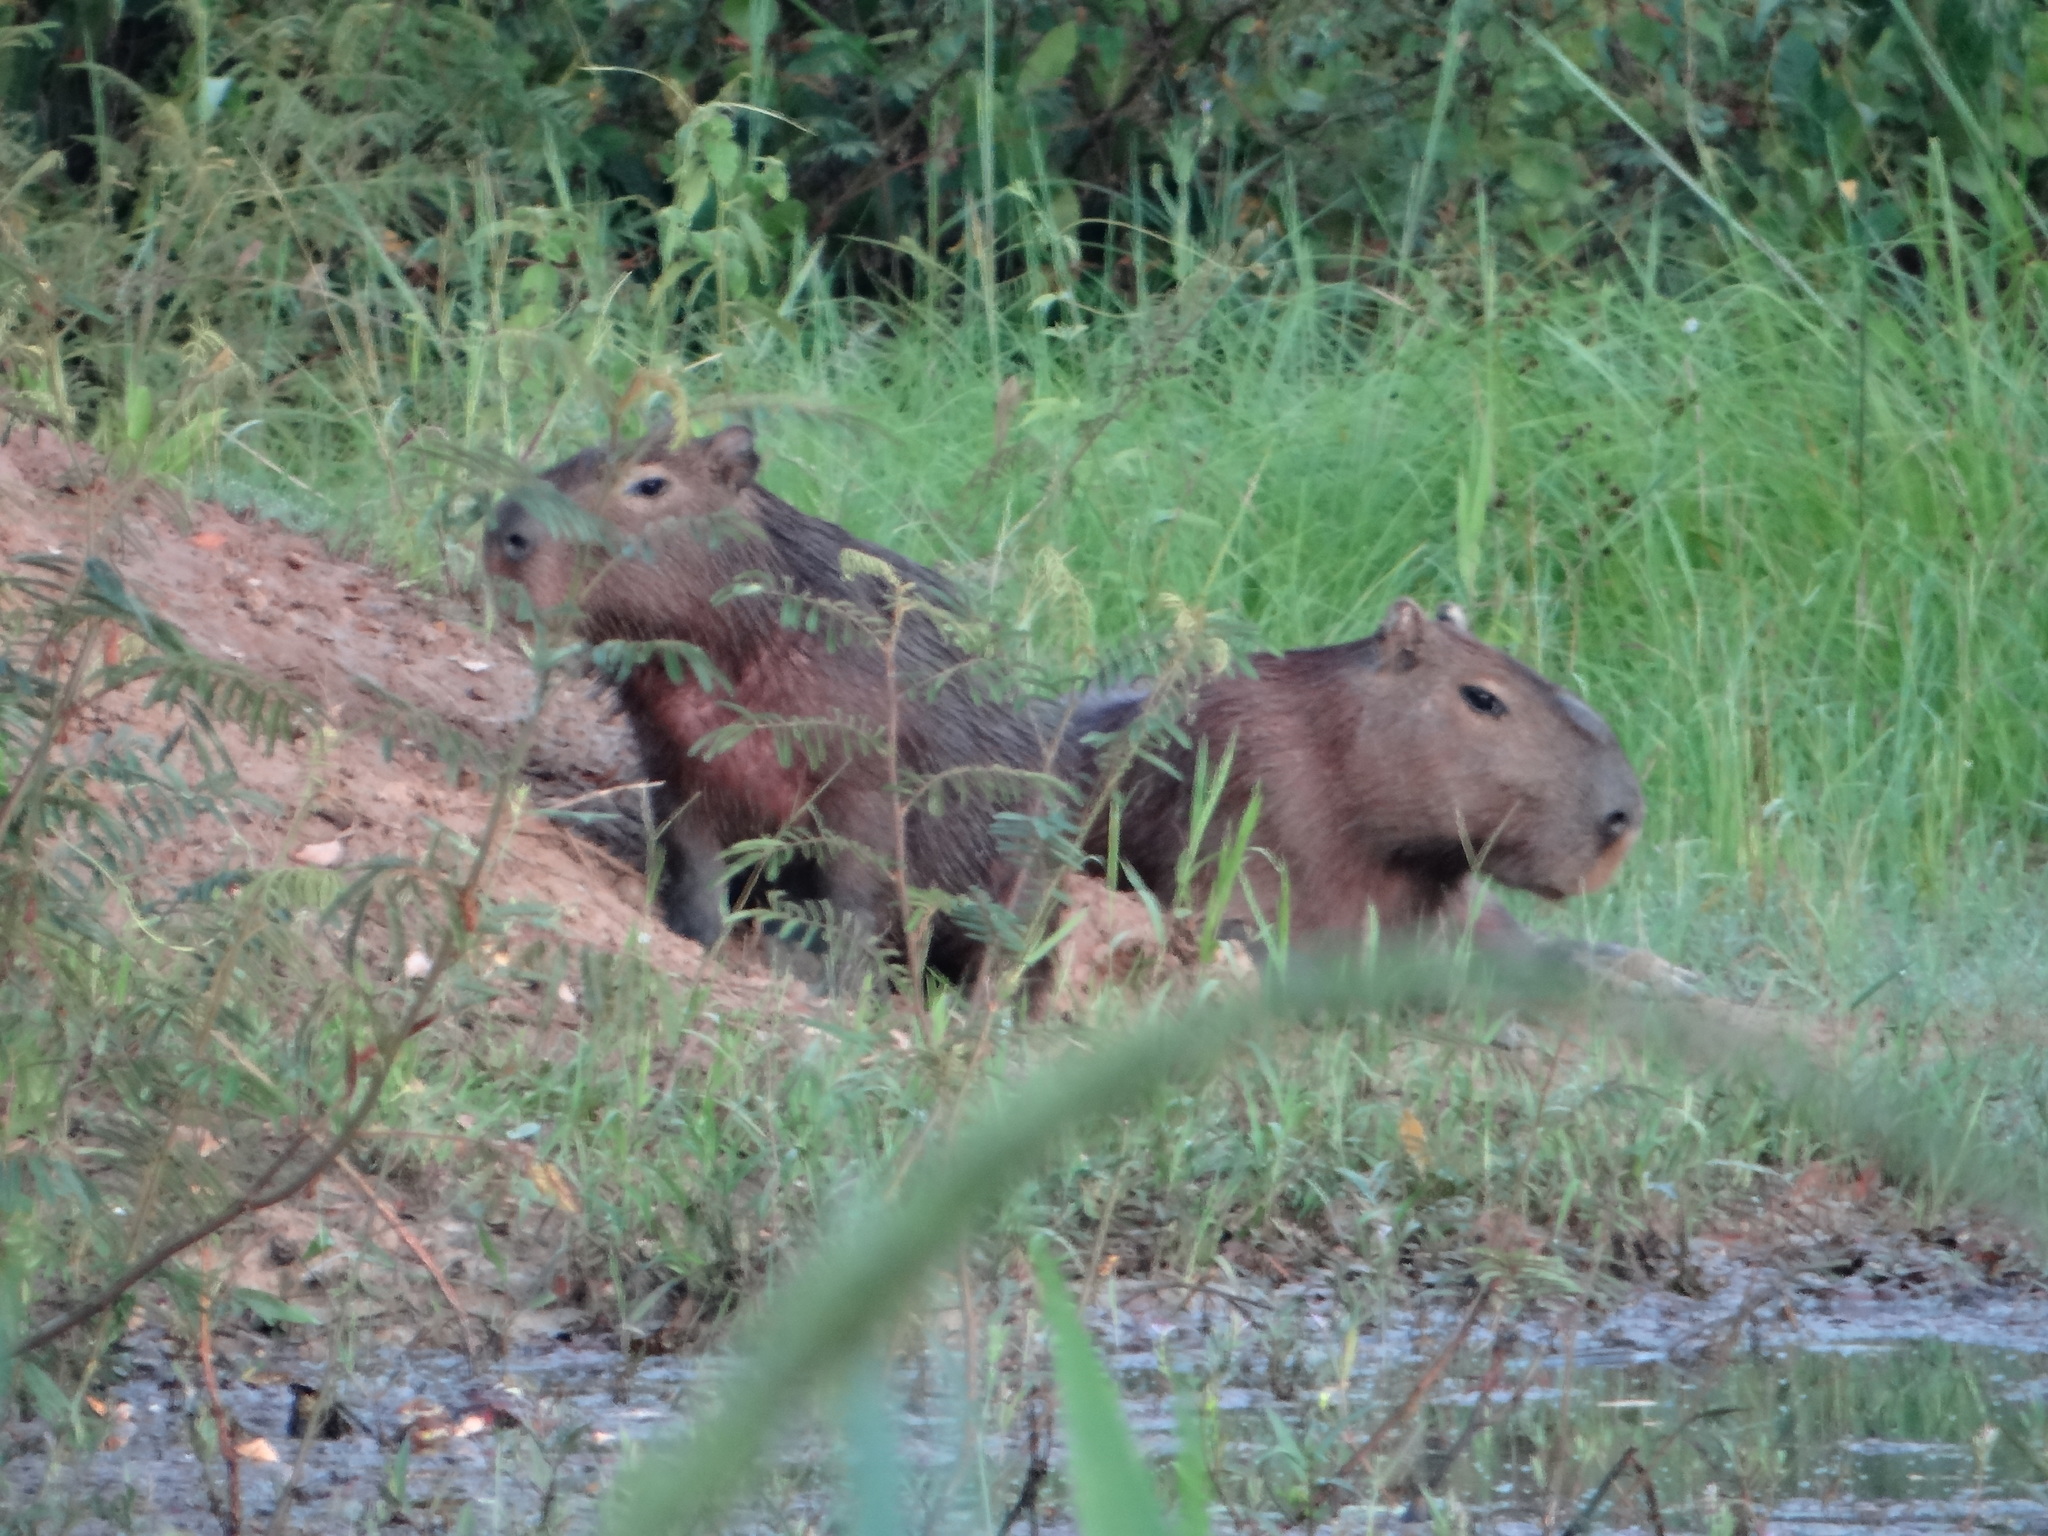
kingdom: Animalia
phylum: Chordata
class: Mammalia
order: Rodentia
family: Caviidae
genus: Hydrochoerus
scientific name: Hydrochoerus hydrochaeris
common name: Capybara
